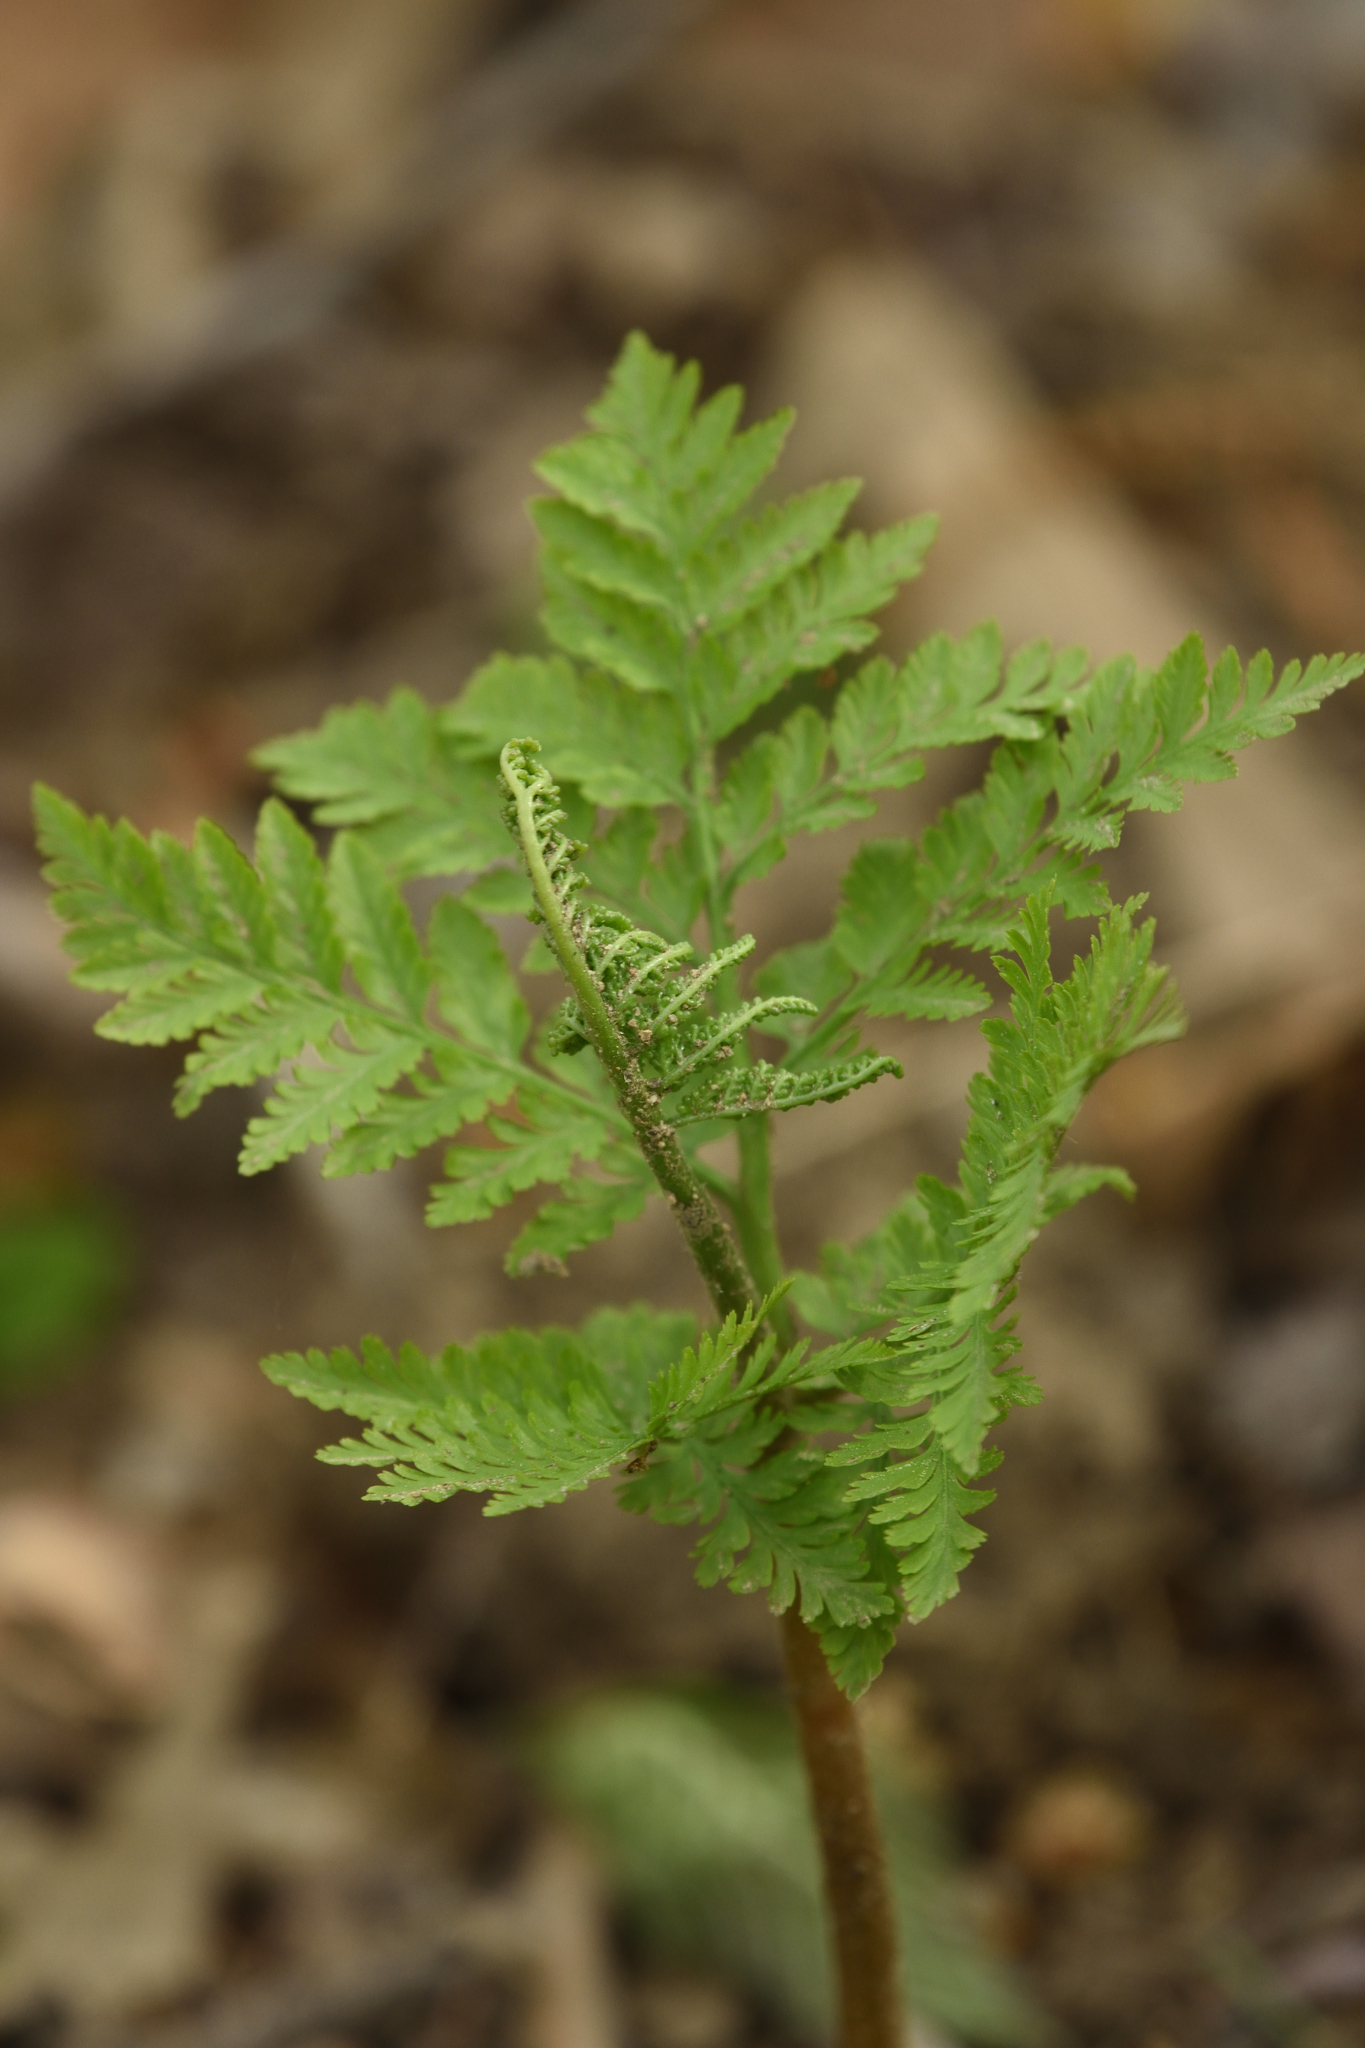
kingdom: Plantae
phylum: Tracheophyta
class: Polypodiopsida
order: Ophioglossales
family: Ophioglossaceae
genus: Botrypus
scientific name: Botrypus virginianus
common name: Common grapefern
